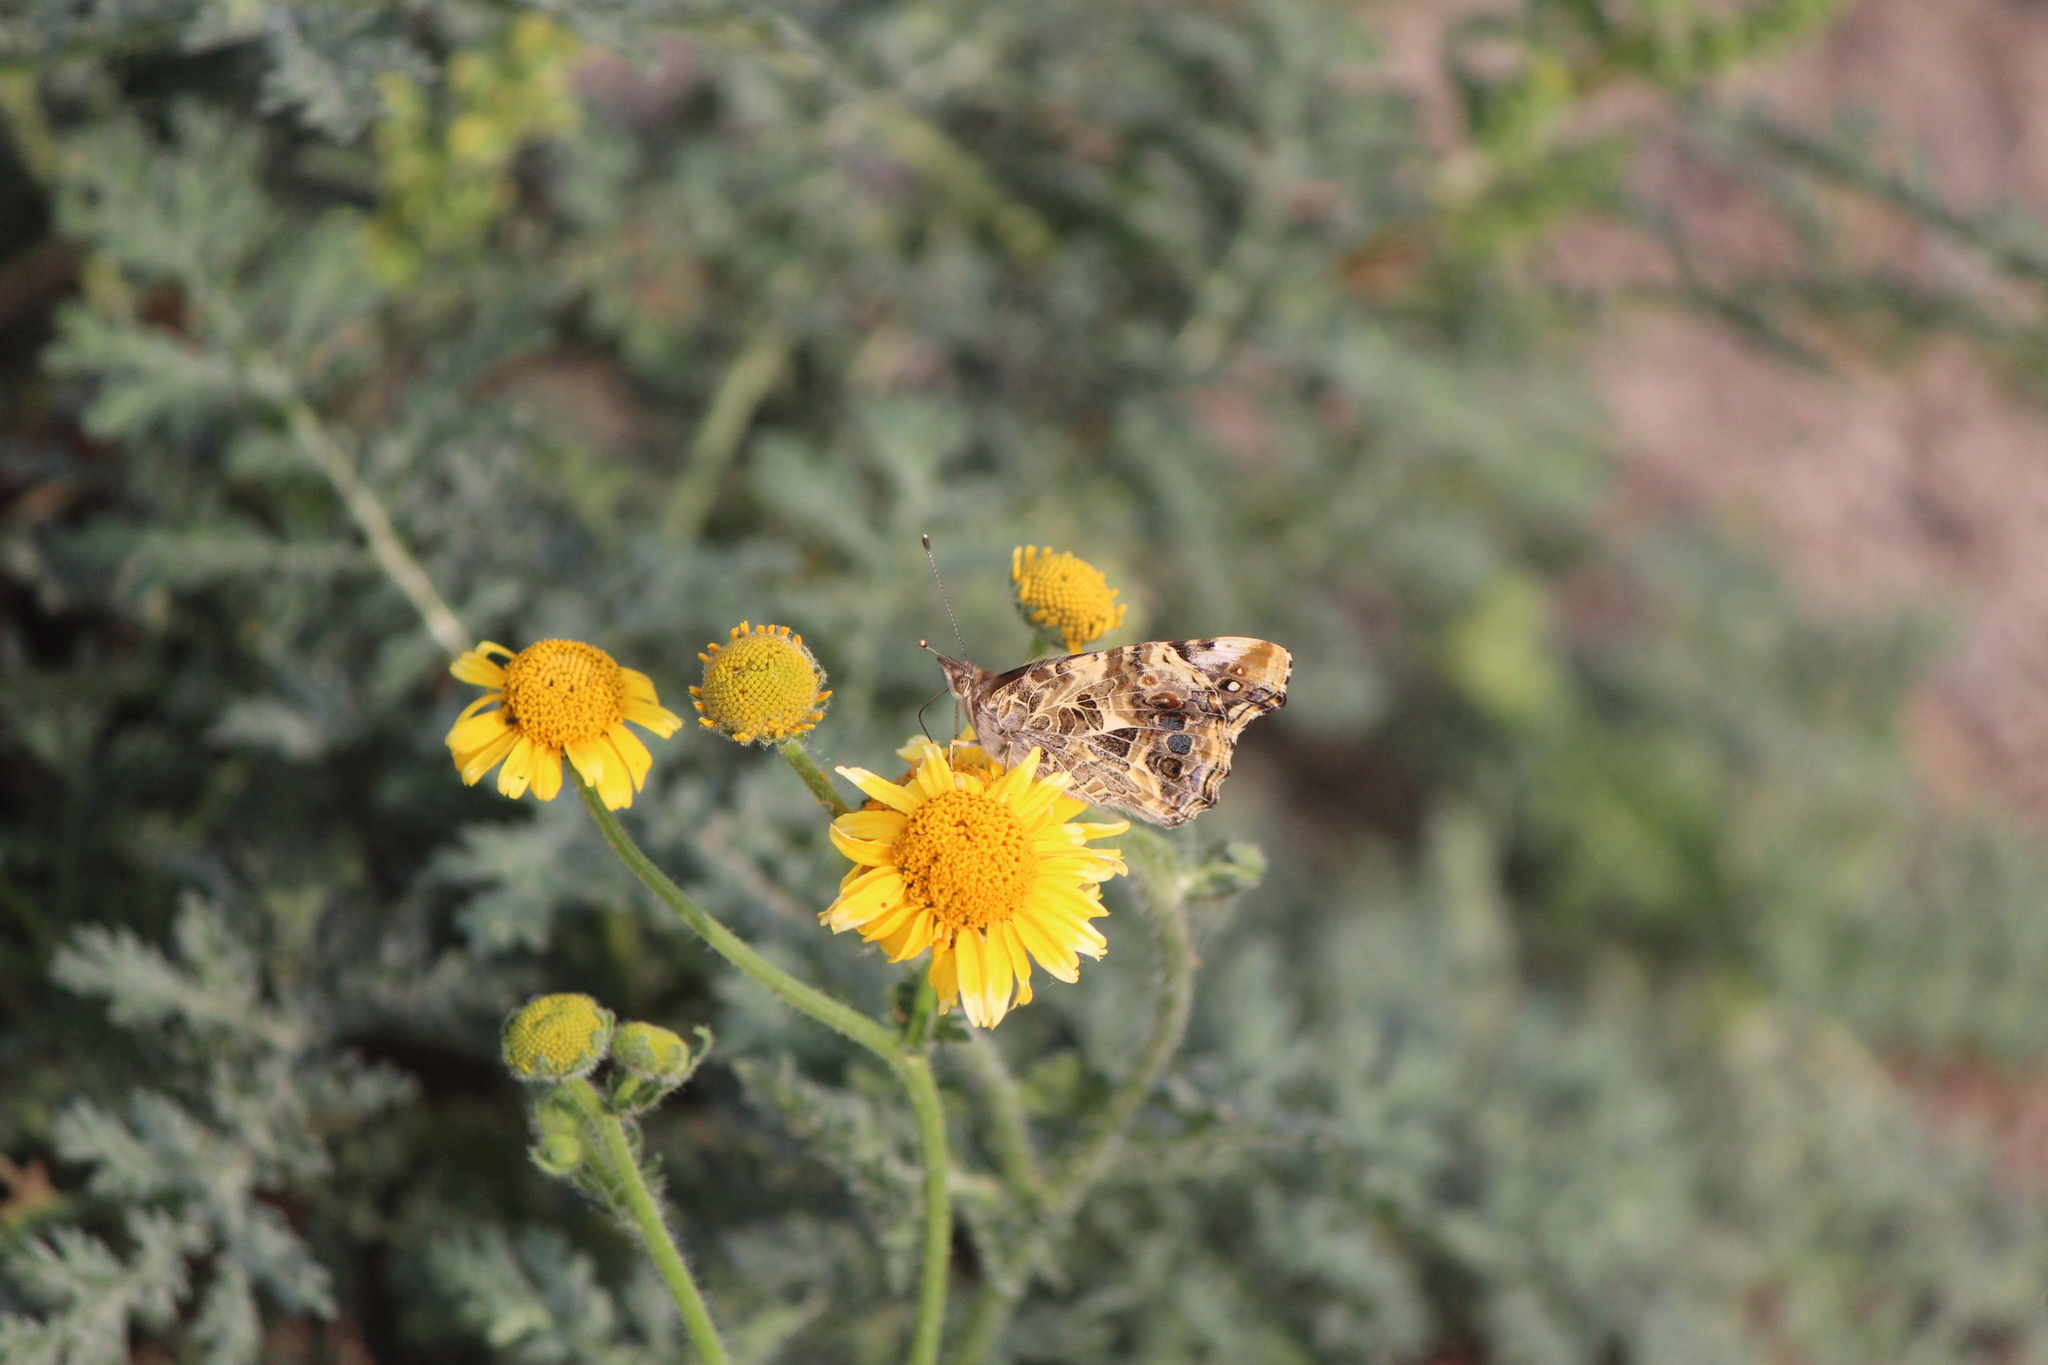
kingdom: Animalia
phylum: Arthropoda
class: Insecta
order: Lepidoptera
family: Nymphalidae
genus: Vanessa
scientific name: Vanessa annabella
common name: West coast lady
